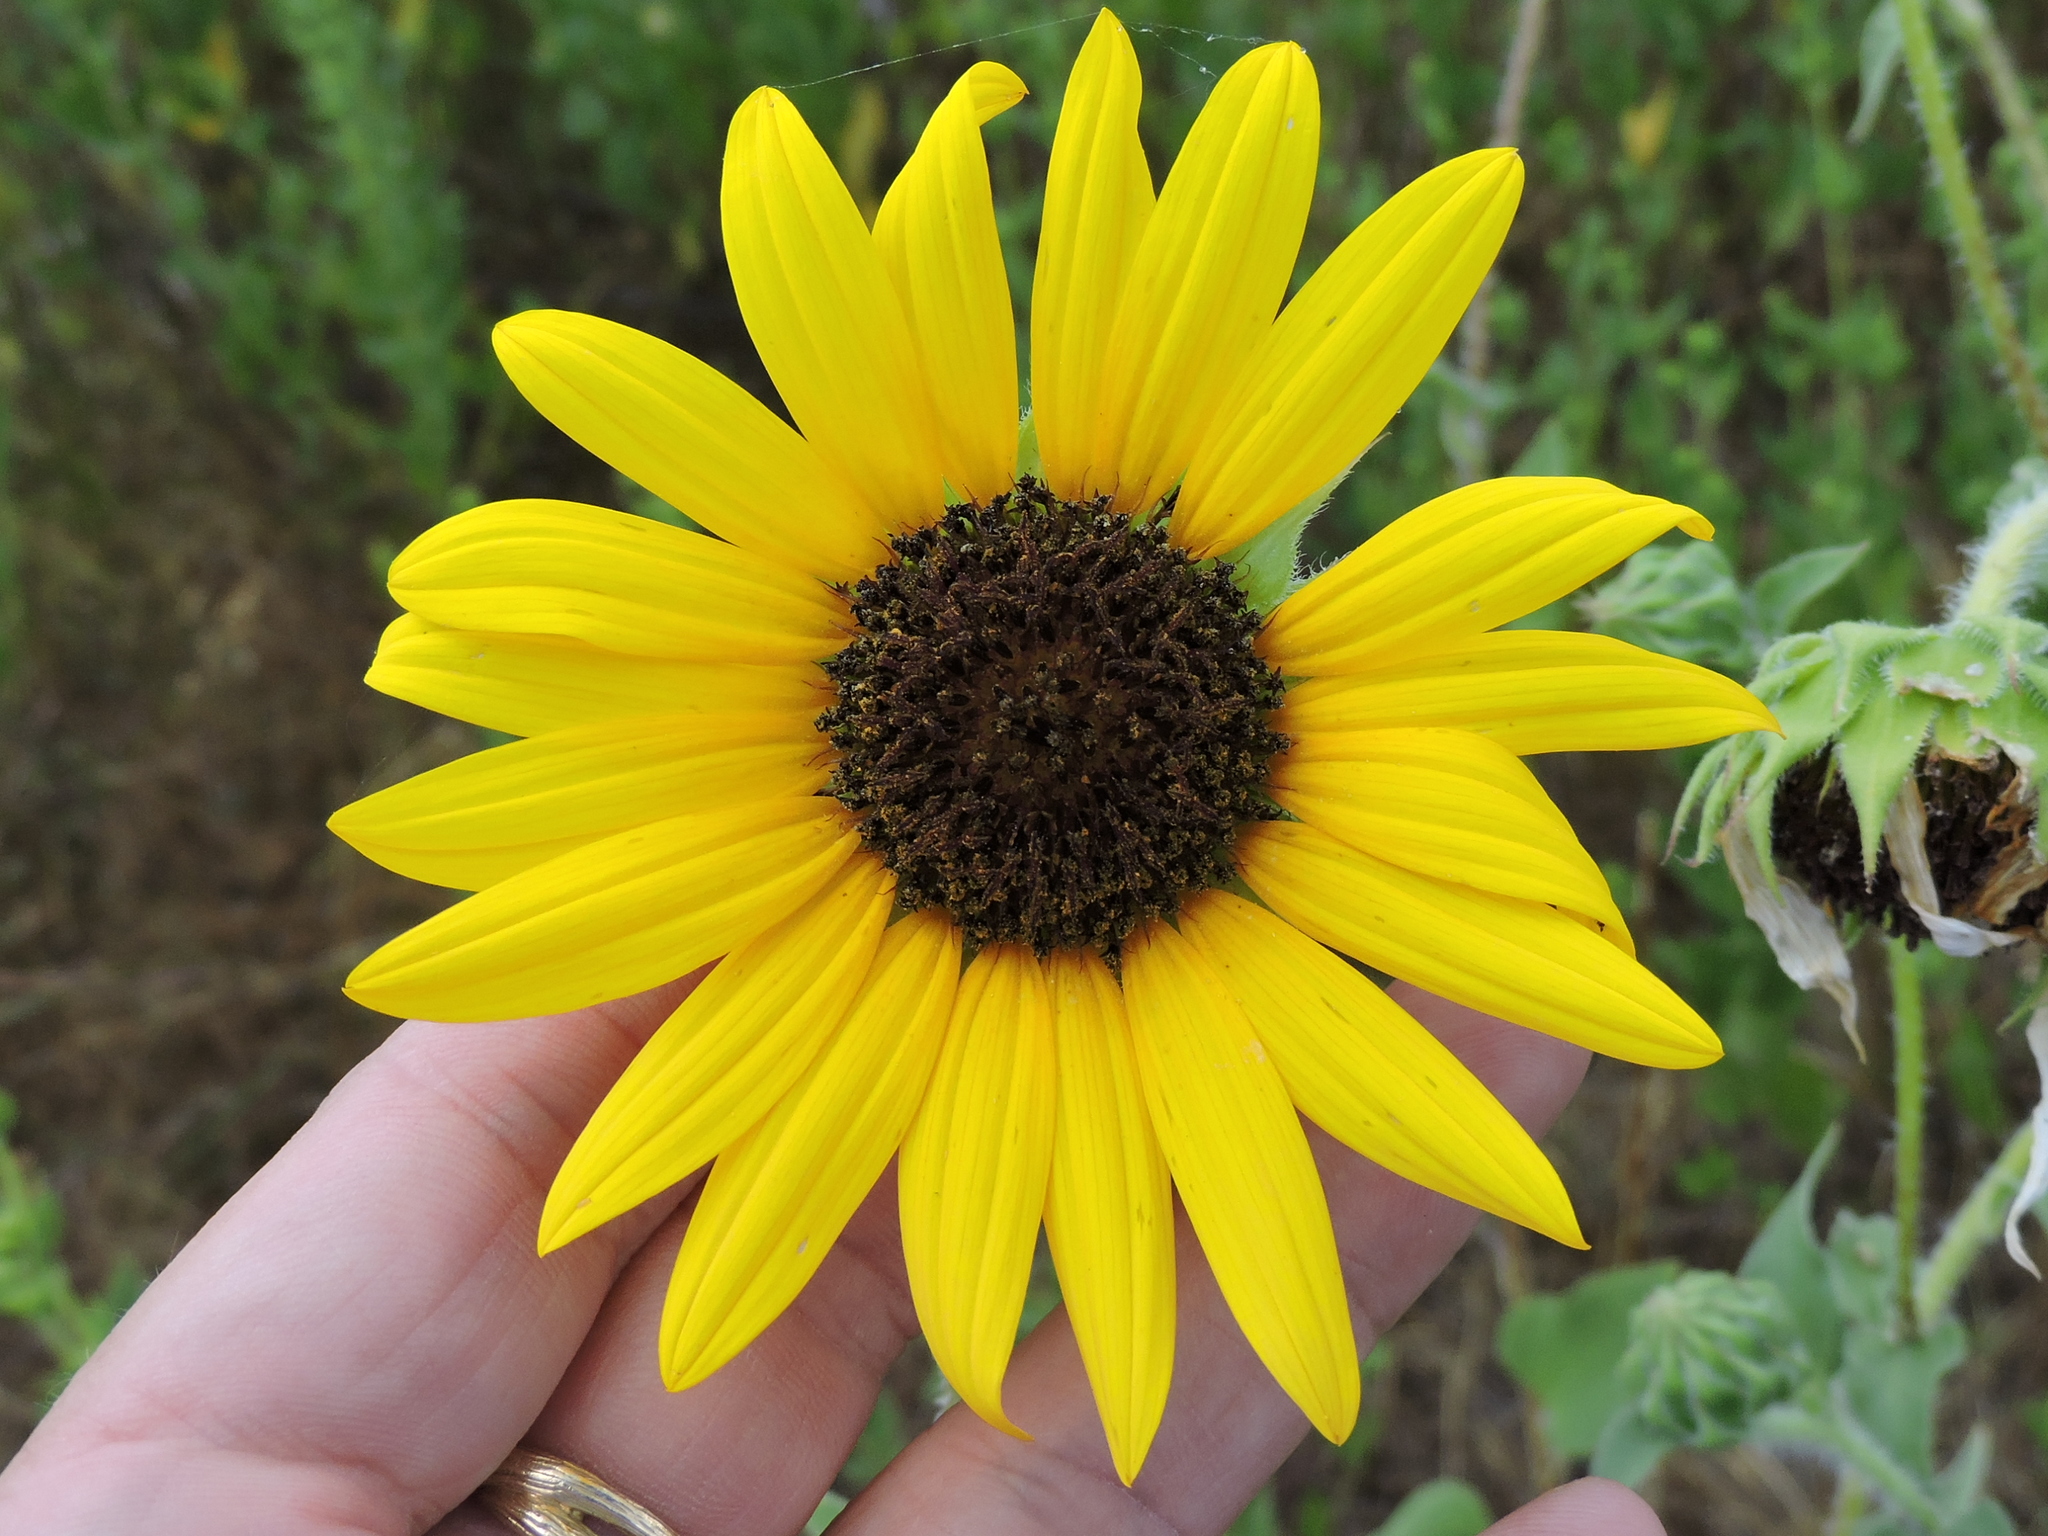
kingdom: Plantae
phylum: Tracheophyta
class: Magnoliopsida
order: Asterales
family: Asteraceae
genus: Helianthus
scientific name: Helianthus annuus
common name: Sunflower
